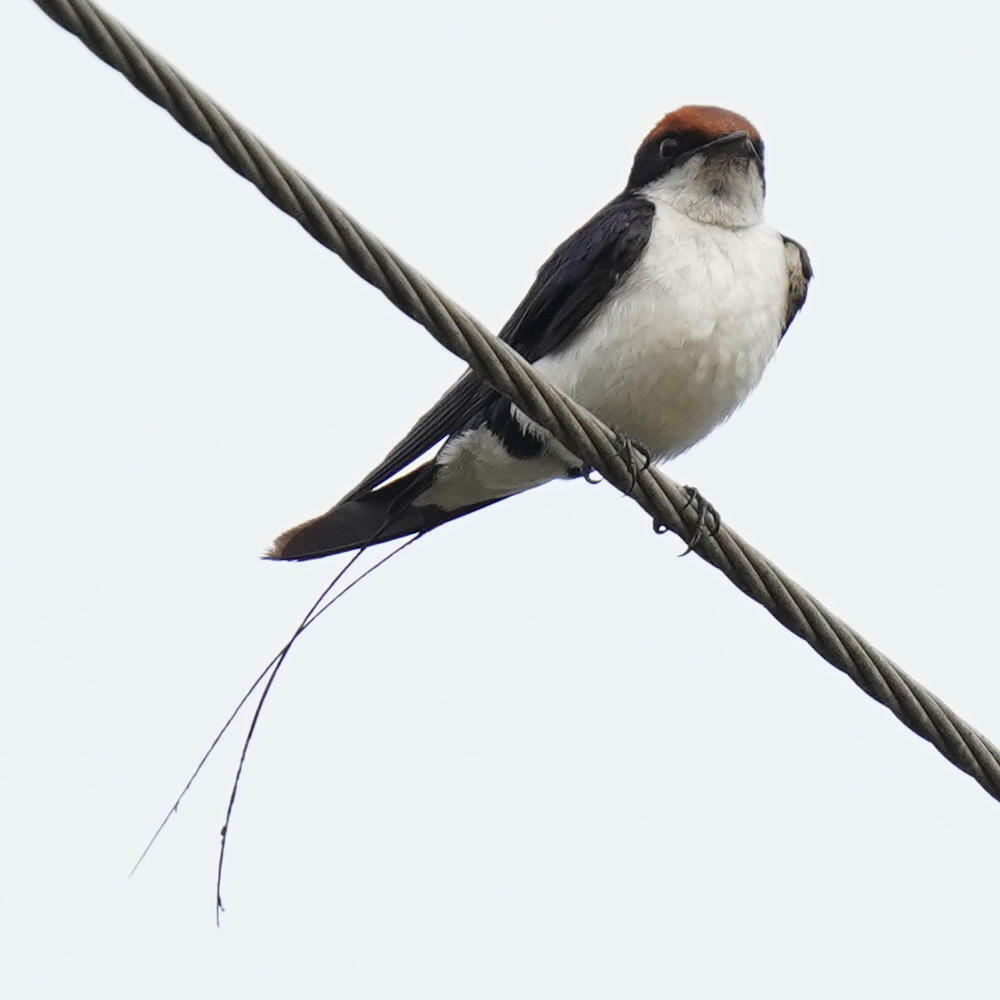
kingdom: Animalia
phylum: Chordata
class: Aves
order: Passeriformes
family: Hirundinidae
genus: Hirundo
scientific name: Hirundo smithii
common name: Wire-tailed swallow
